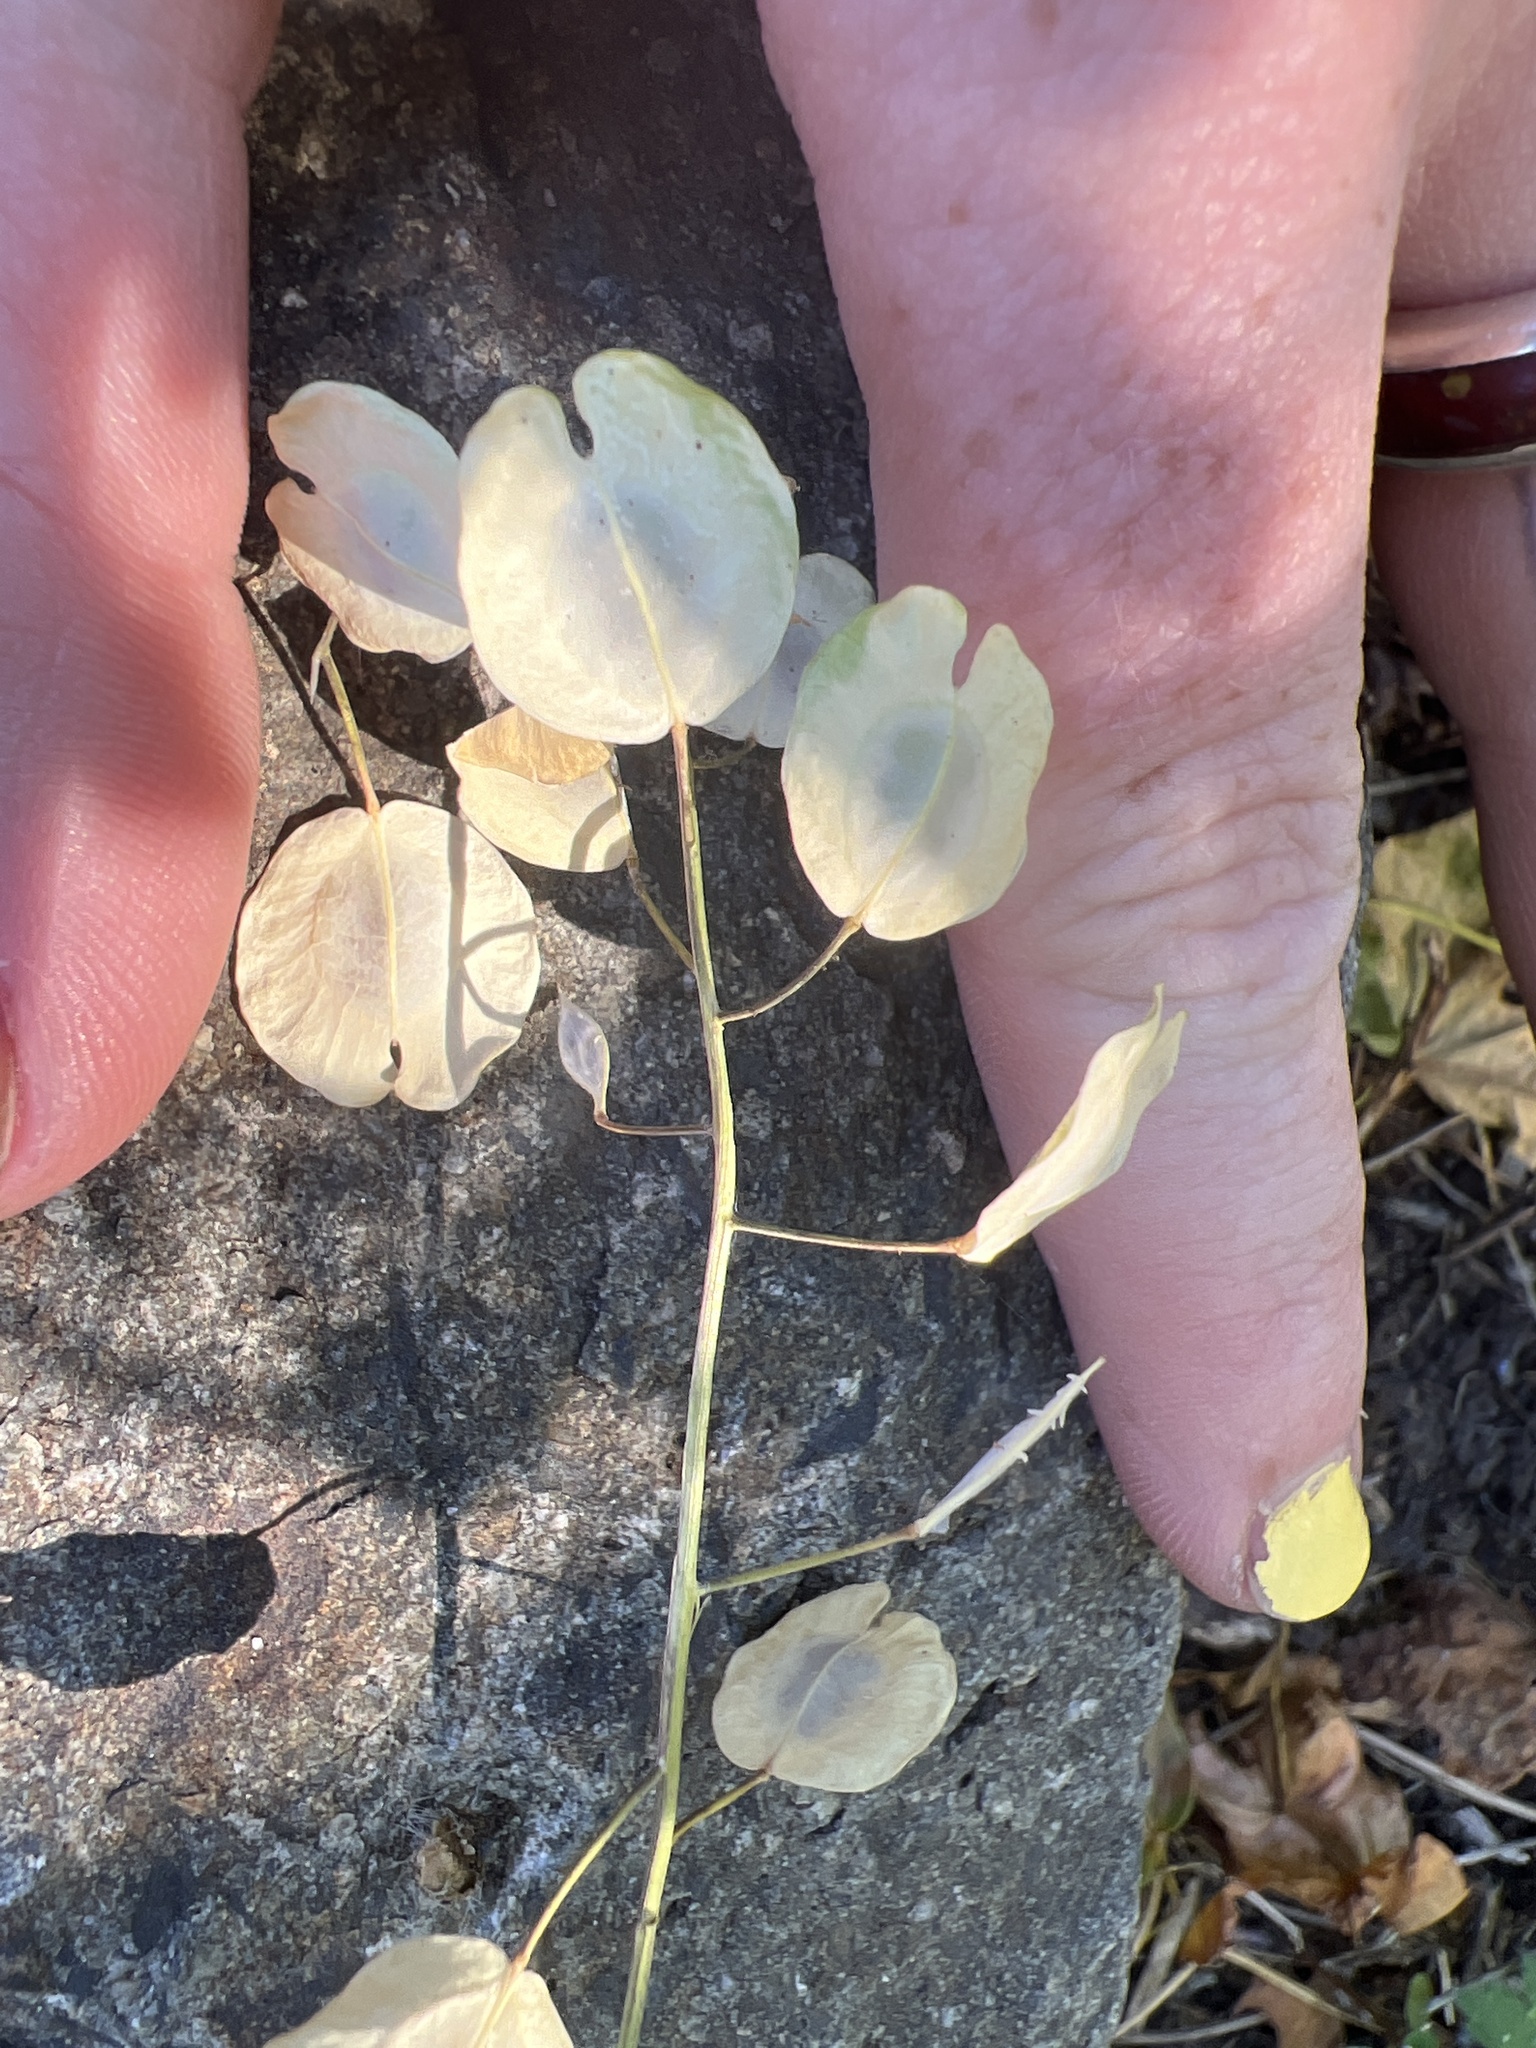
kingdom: Plantae
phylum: Tracheophyta
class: Magnoliopsida
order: Brassicales
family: Brassicaceae
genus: Thlaspi
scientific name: Thlaspi arvense
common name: Field pennycress
